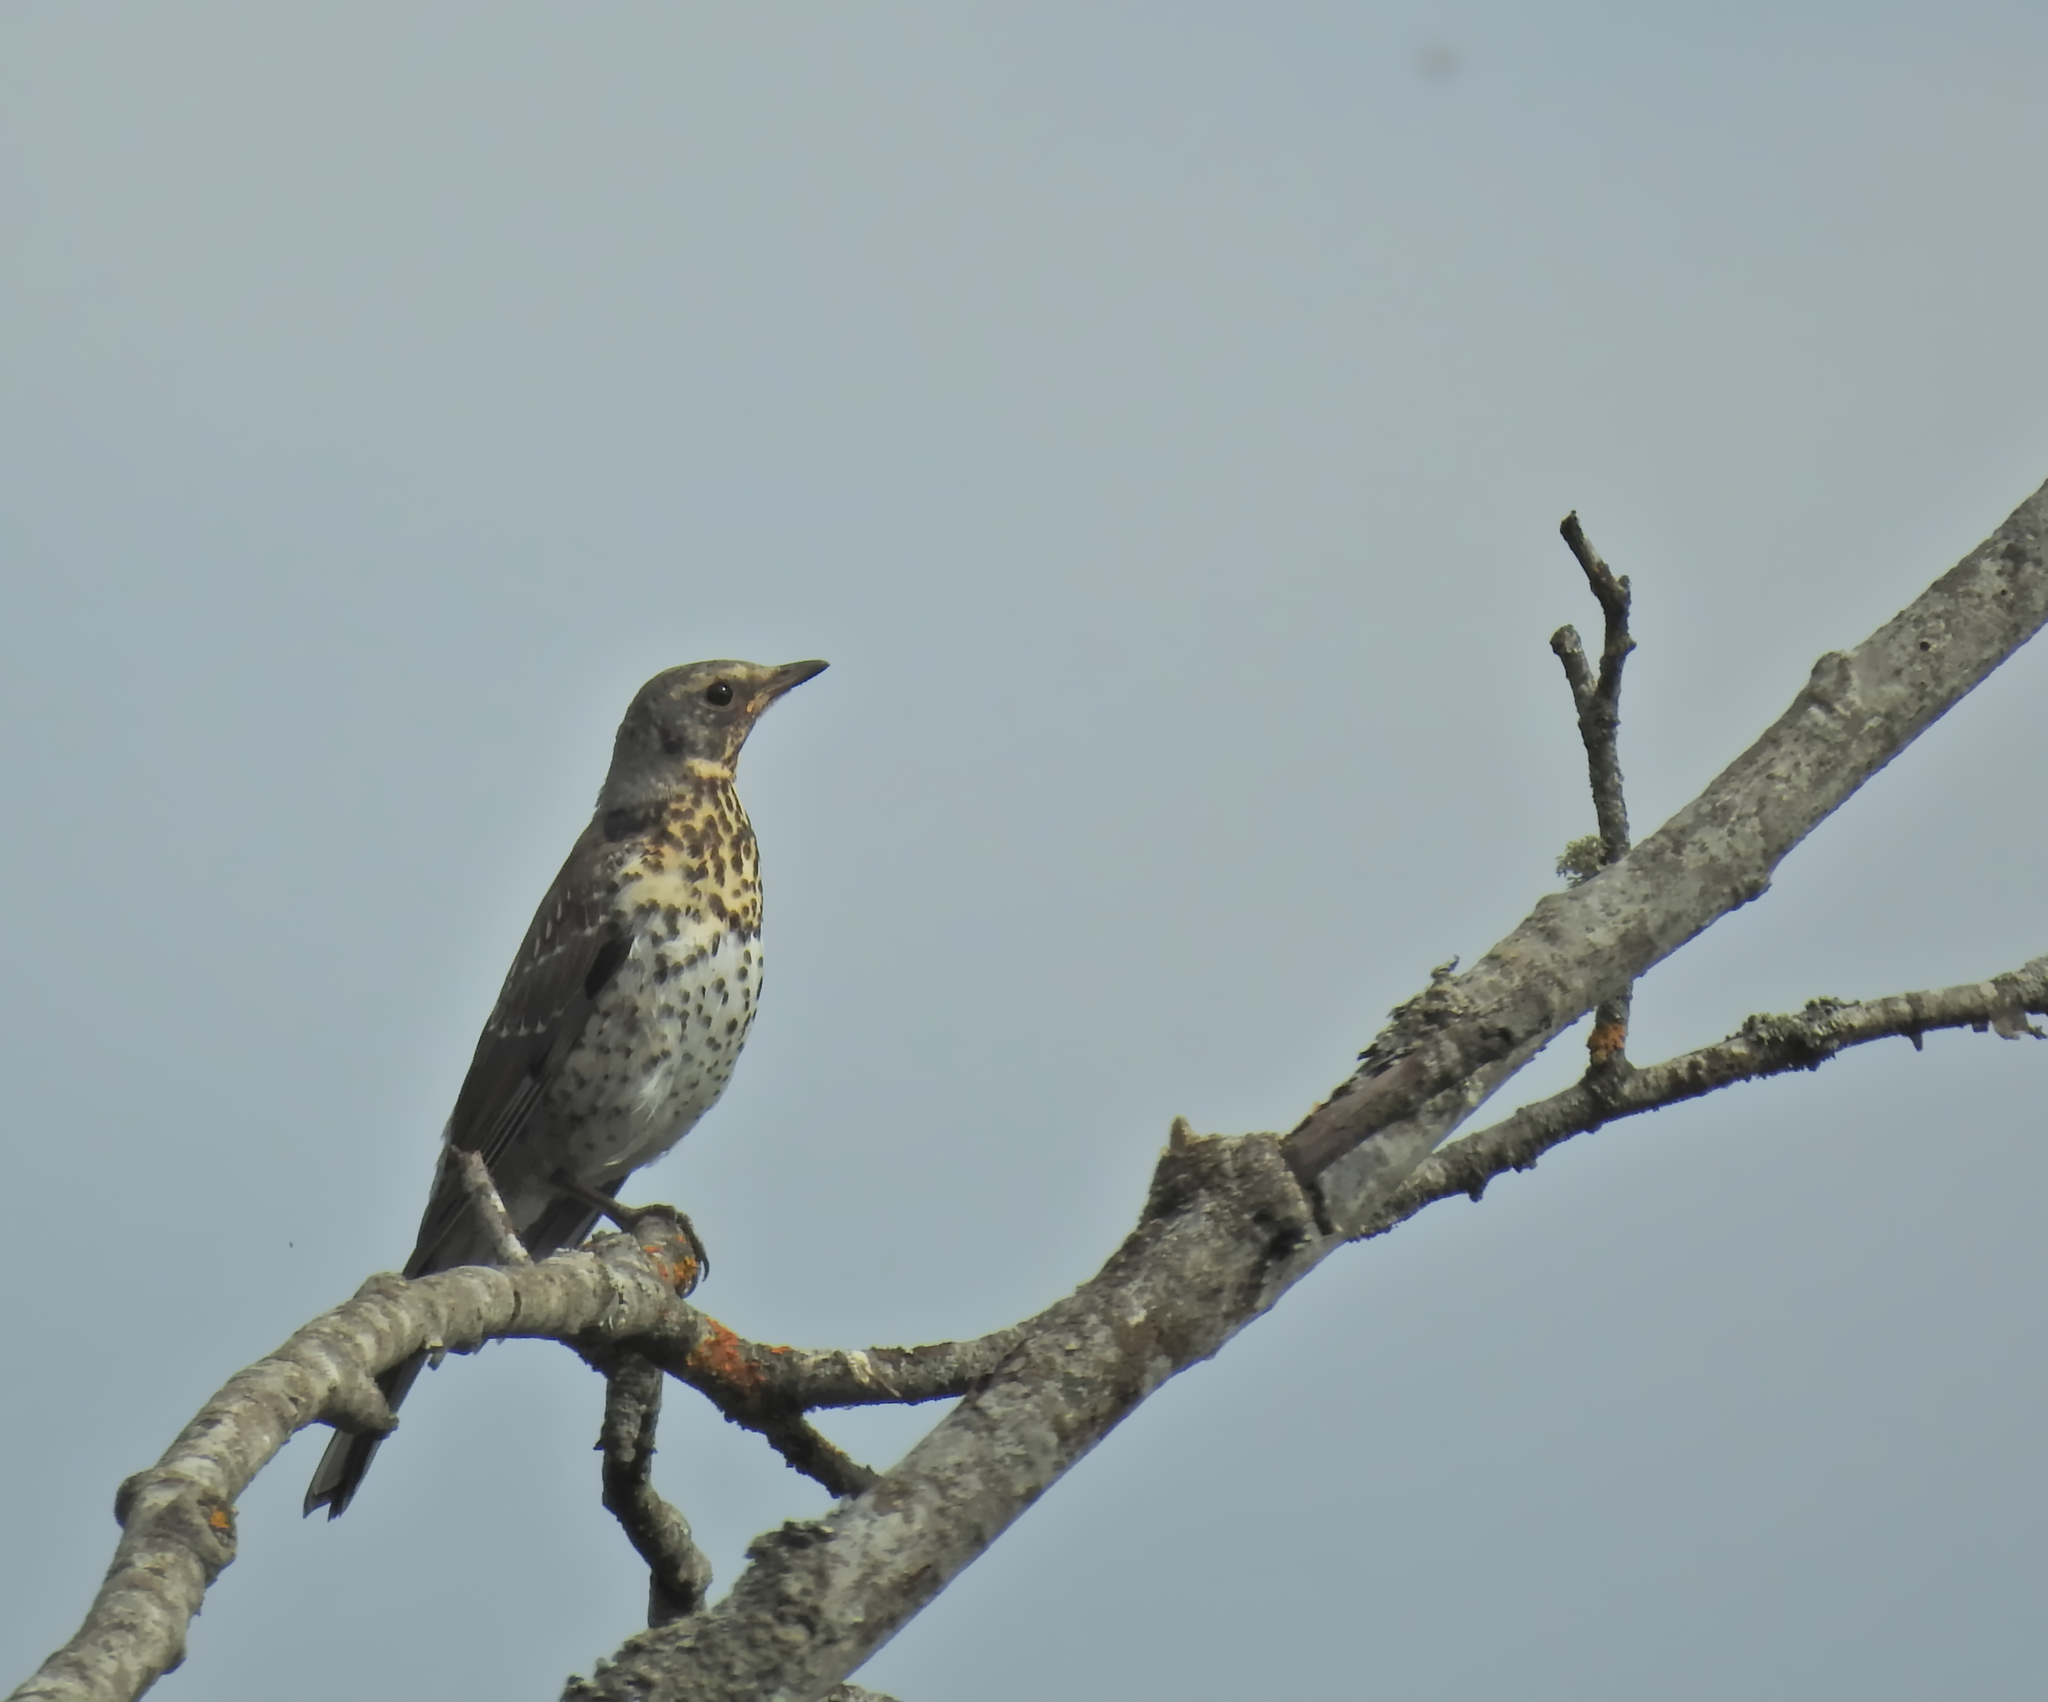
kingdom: Animalia
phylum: Chordata
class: Aves
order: Passeriformes
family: Turdidae
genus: Turdus
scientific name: Turdus pilaris
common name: Fieldfare
